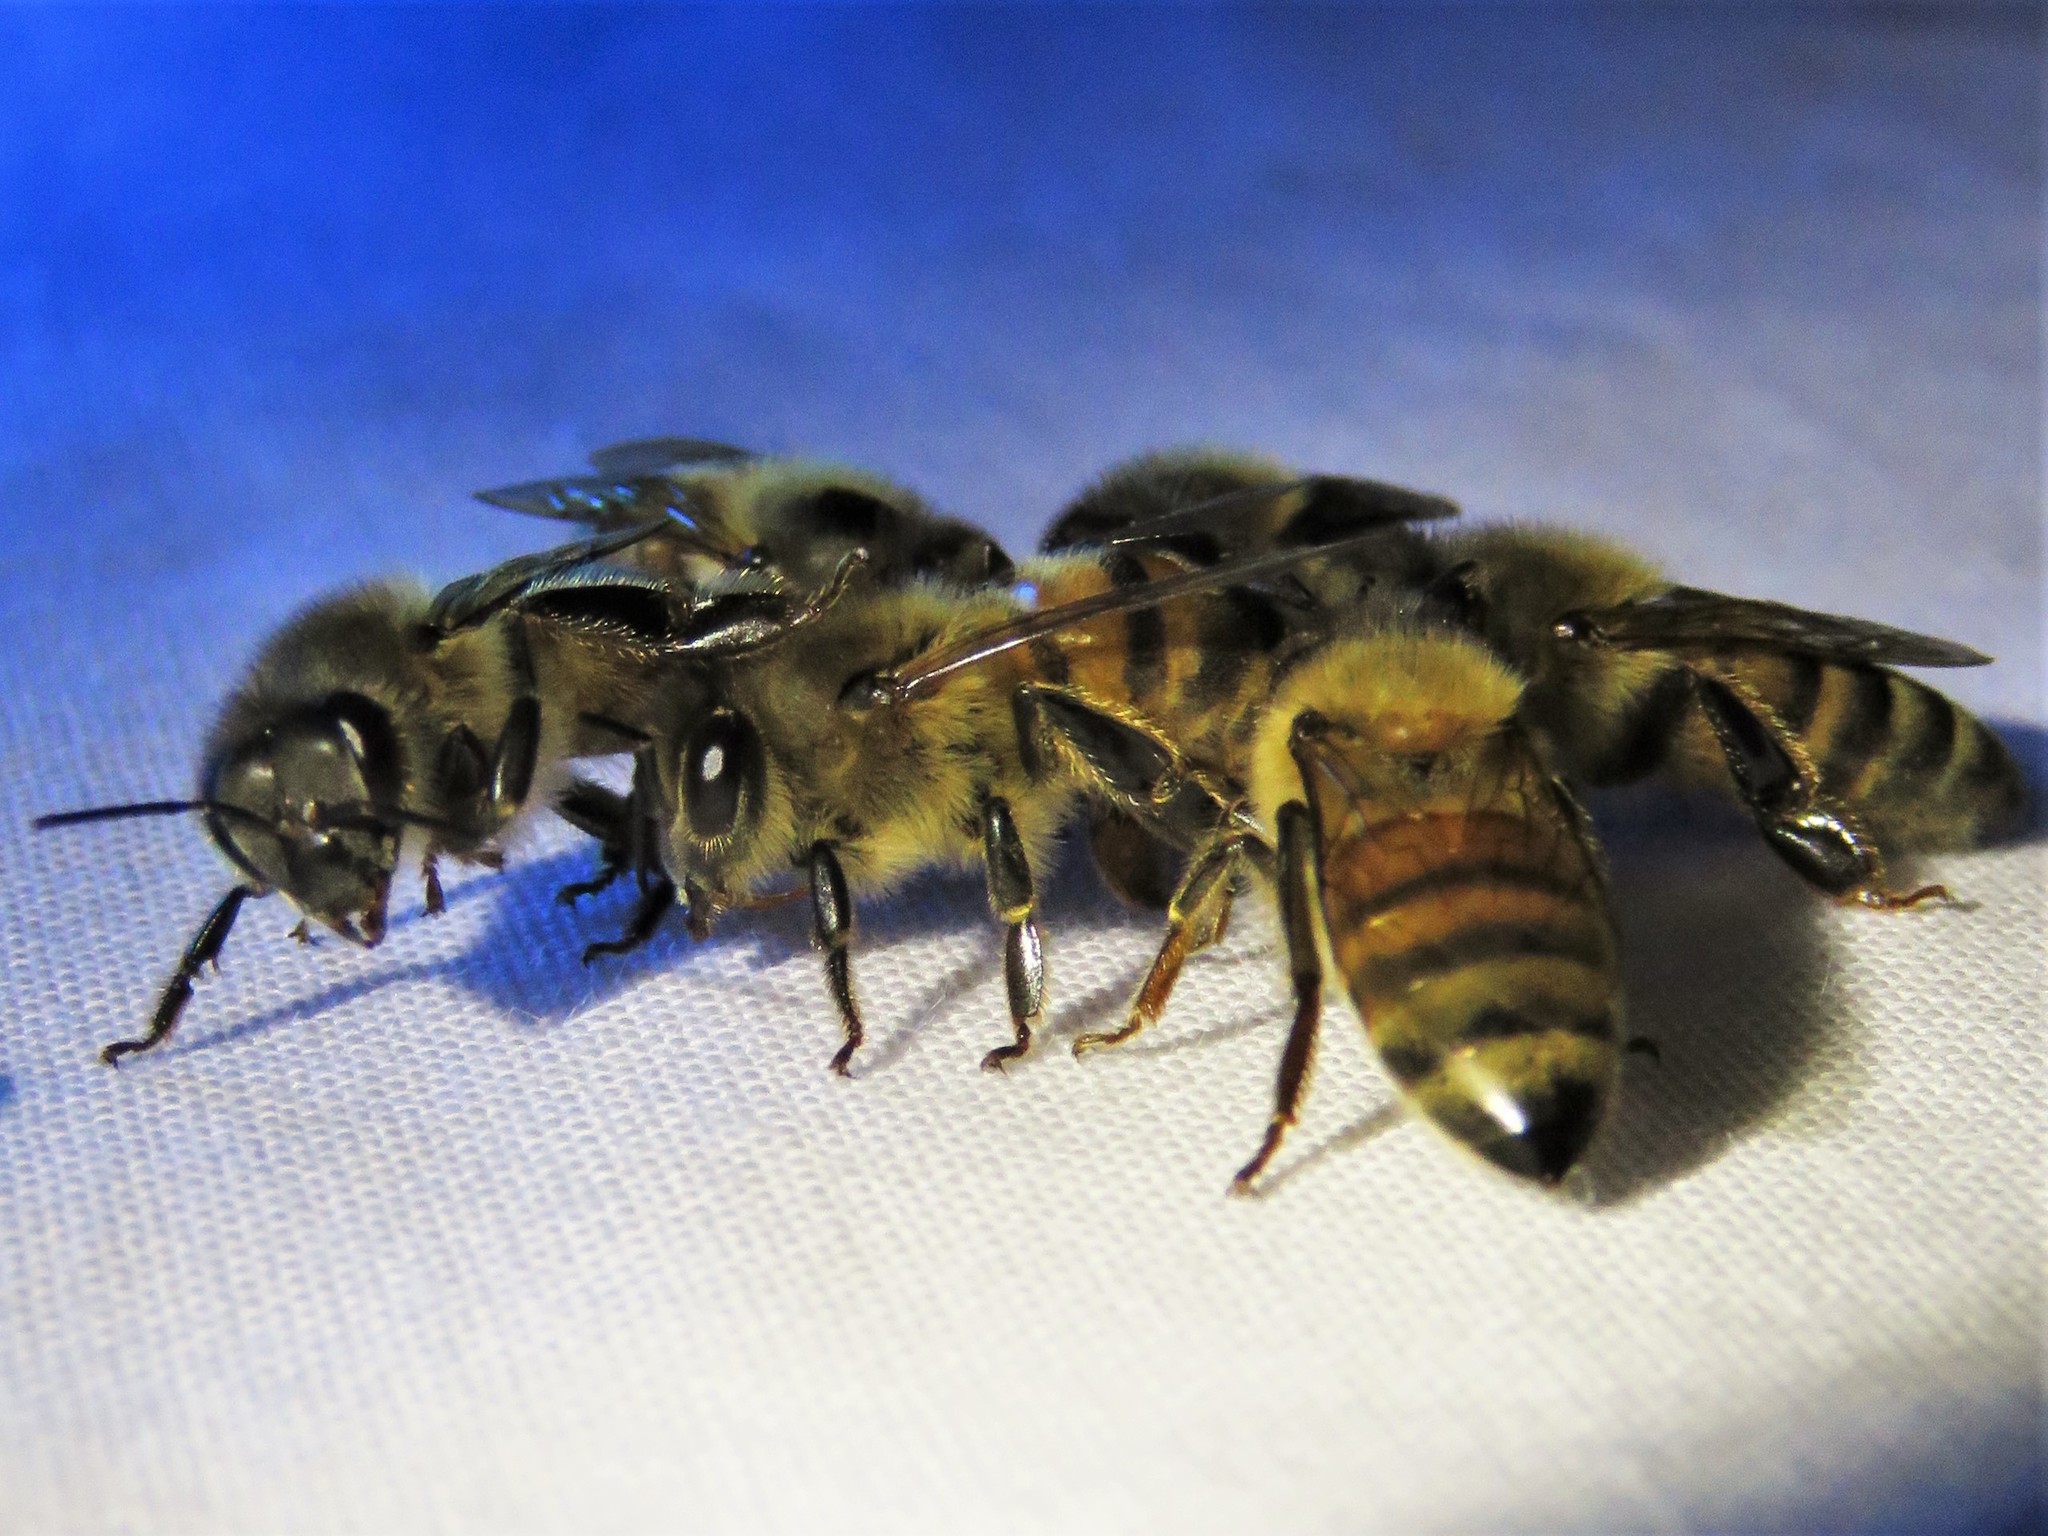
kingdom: Animalia
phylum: Arthropoda
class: Insecta
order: Hymenoptera
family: Apidae
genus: Apis
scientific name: Apis mellifera
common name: Honey bee
